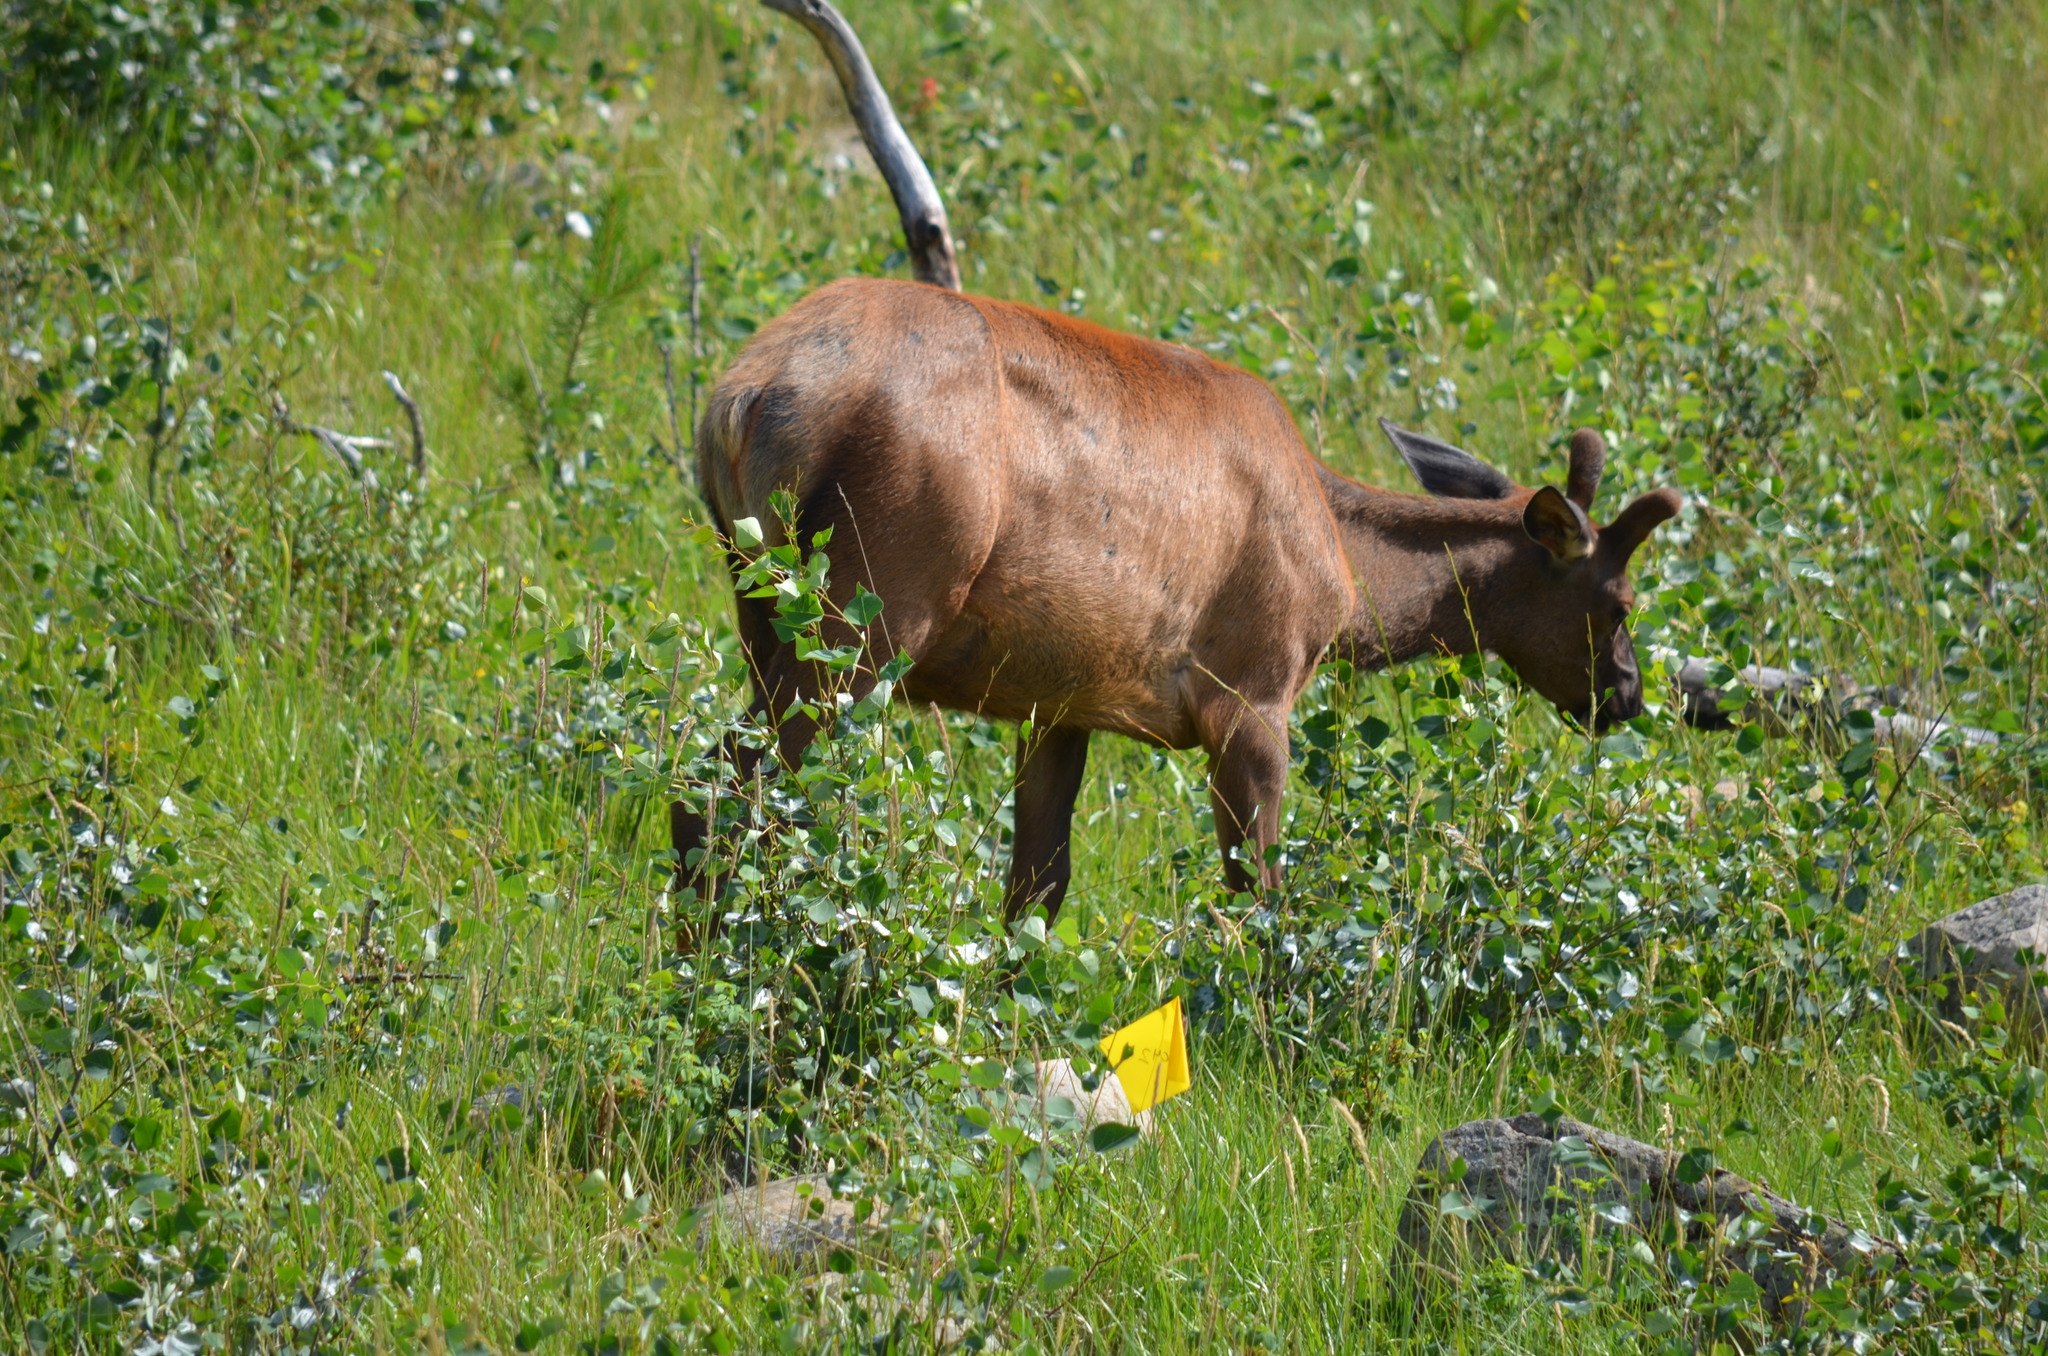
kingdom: Animalia
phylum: Chordata
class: Mammalia
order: Artiodactyla
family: Cervidae
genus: Cervus
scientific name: Cervus elaphus
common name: Red deer
